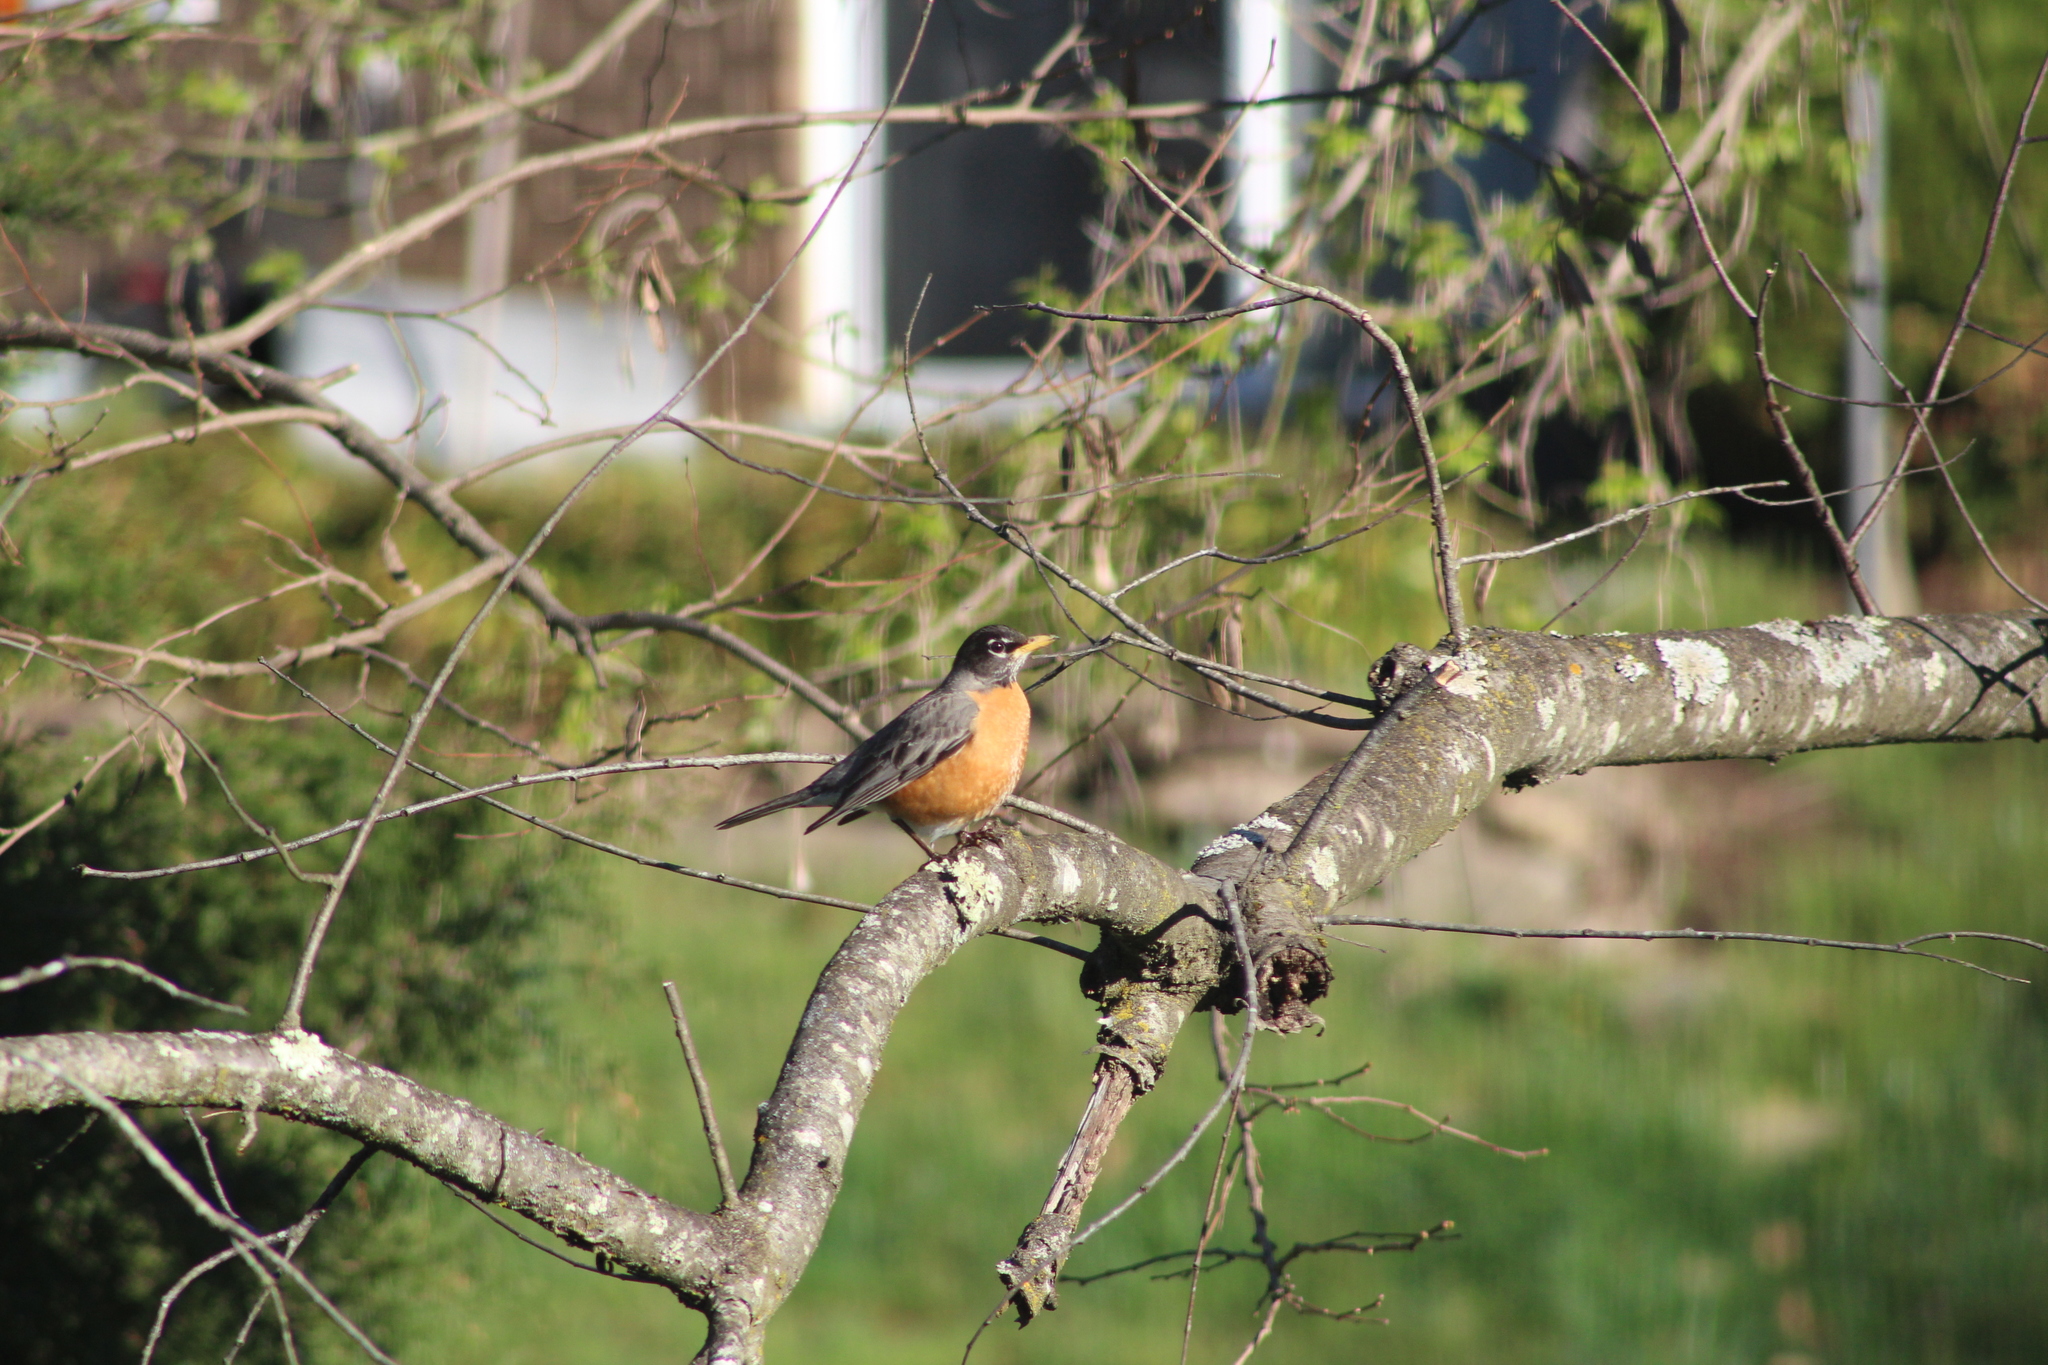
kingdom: Animalia
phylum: Chordata
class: Aves
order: Passeriformes
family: Turdidae
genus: Turdus
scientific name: Turdus migratorius
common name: American robin
